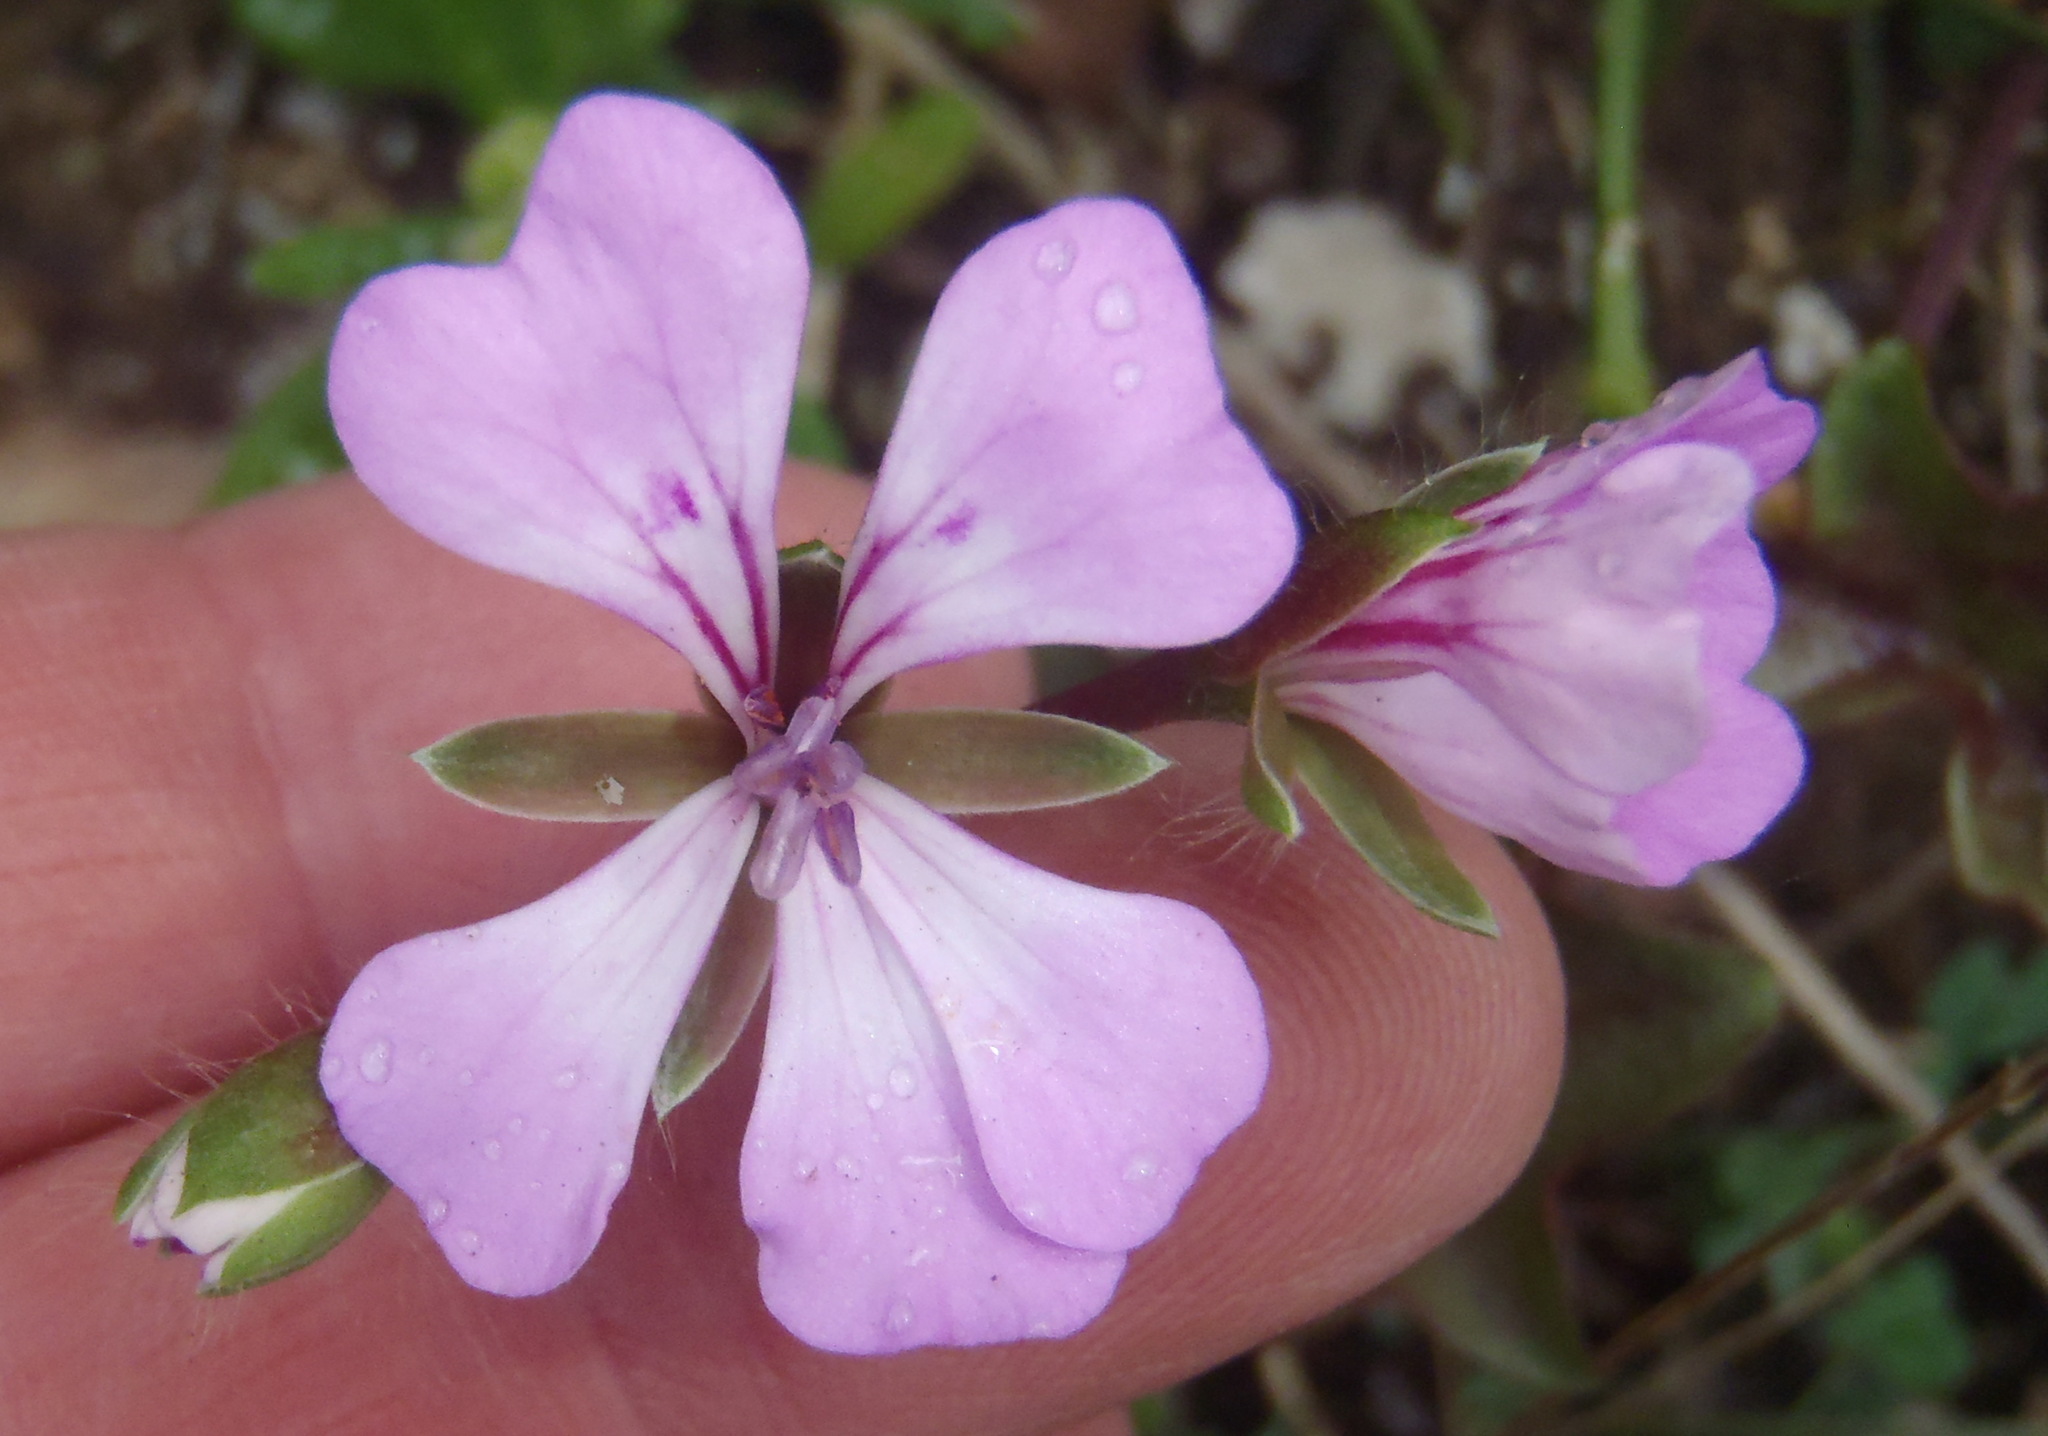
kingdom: Plantae
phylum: Tracheophyta
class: Magnoliopsida
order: Geraniales
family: Geraniaceae
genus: Pelargonium
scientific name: Pelargonium peltatum
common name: Ivyleaf geranium
